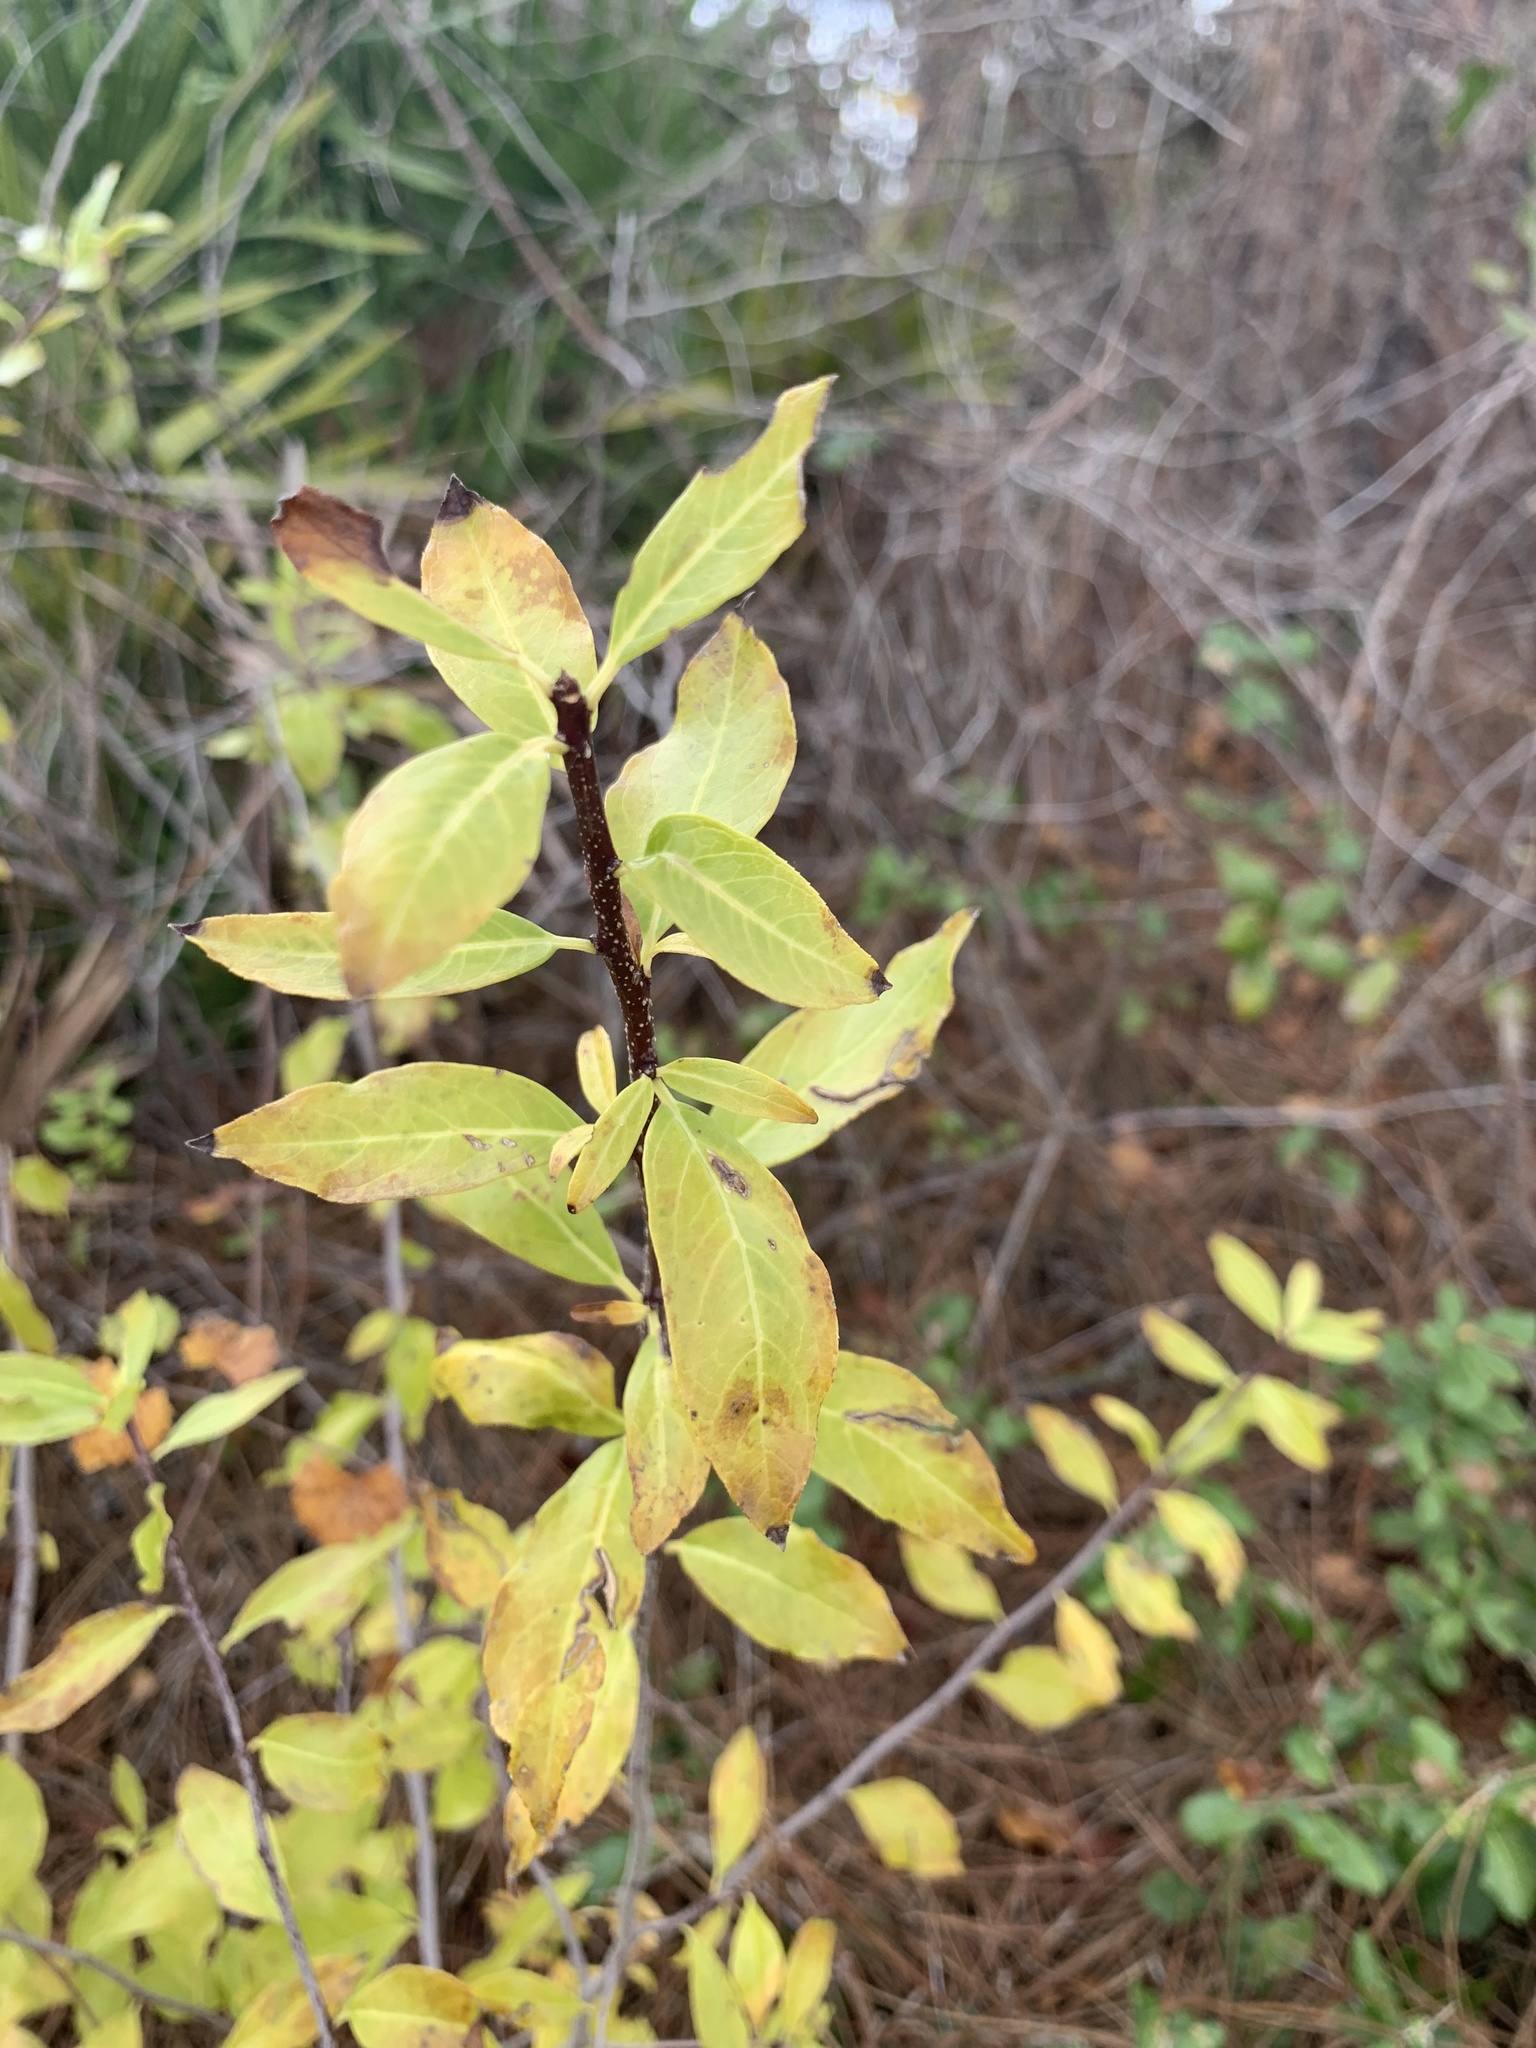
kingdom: Plantae
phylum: Tracheophyta
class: Magnoliopsida
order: Aquifoliales
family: Aquifoliaceae
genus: Ilex
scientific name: Ilex ambigua
